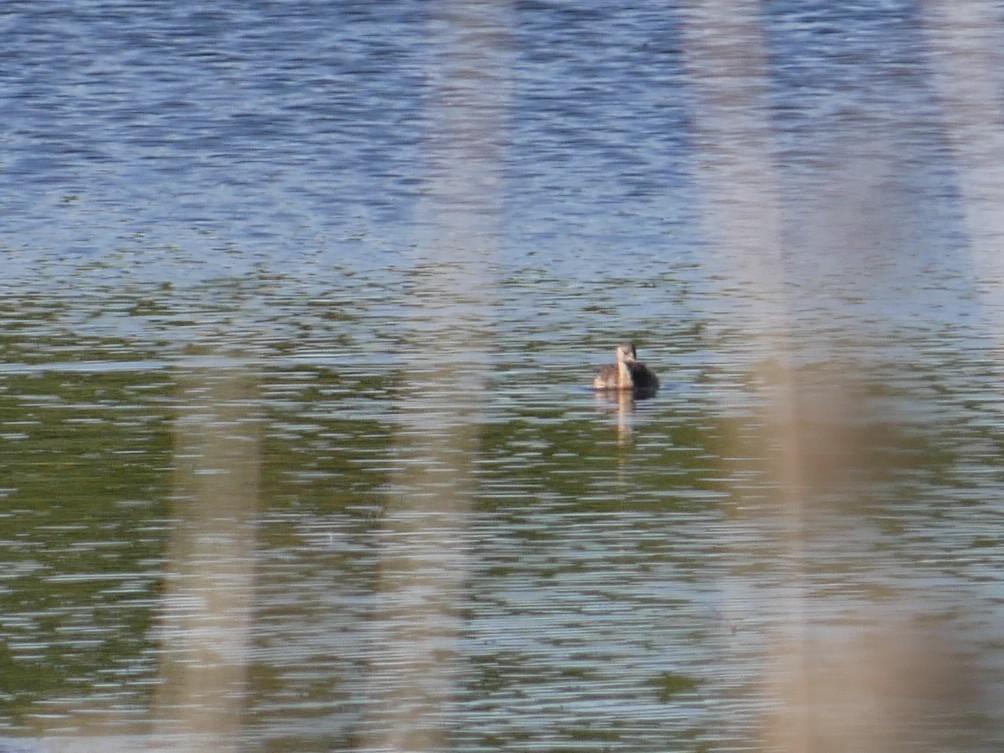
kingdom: Animalia
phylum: Chordata
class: Aves
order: Podicipediformes
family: Podicipedidae
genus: Tachybaptus
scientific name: Tachybaptus ruficollis
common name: Little grebe
